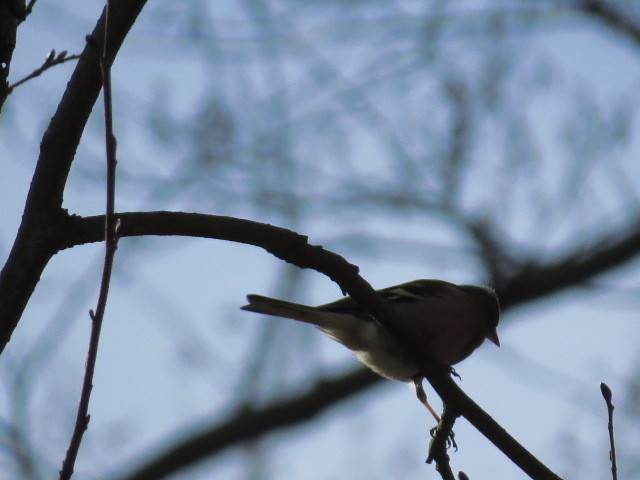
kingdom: Animalia
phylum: Chordata
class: Aves
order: Passeriformes
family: Fringillidae
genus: Fringilla
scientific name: Fringilla coelebs
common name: Common chaffinch
